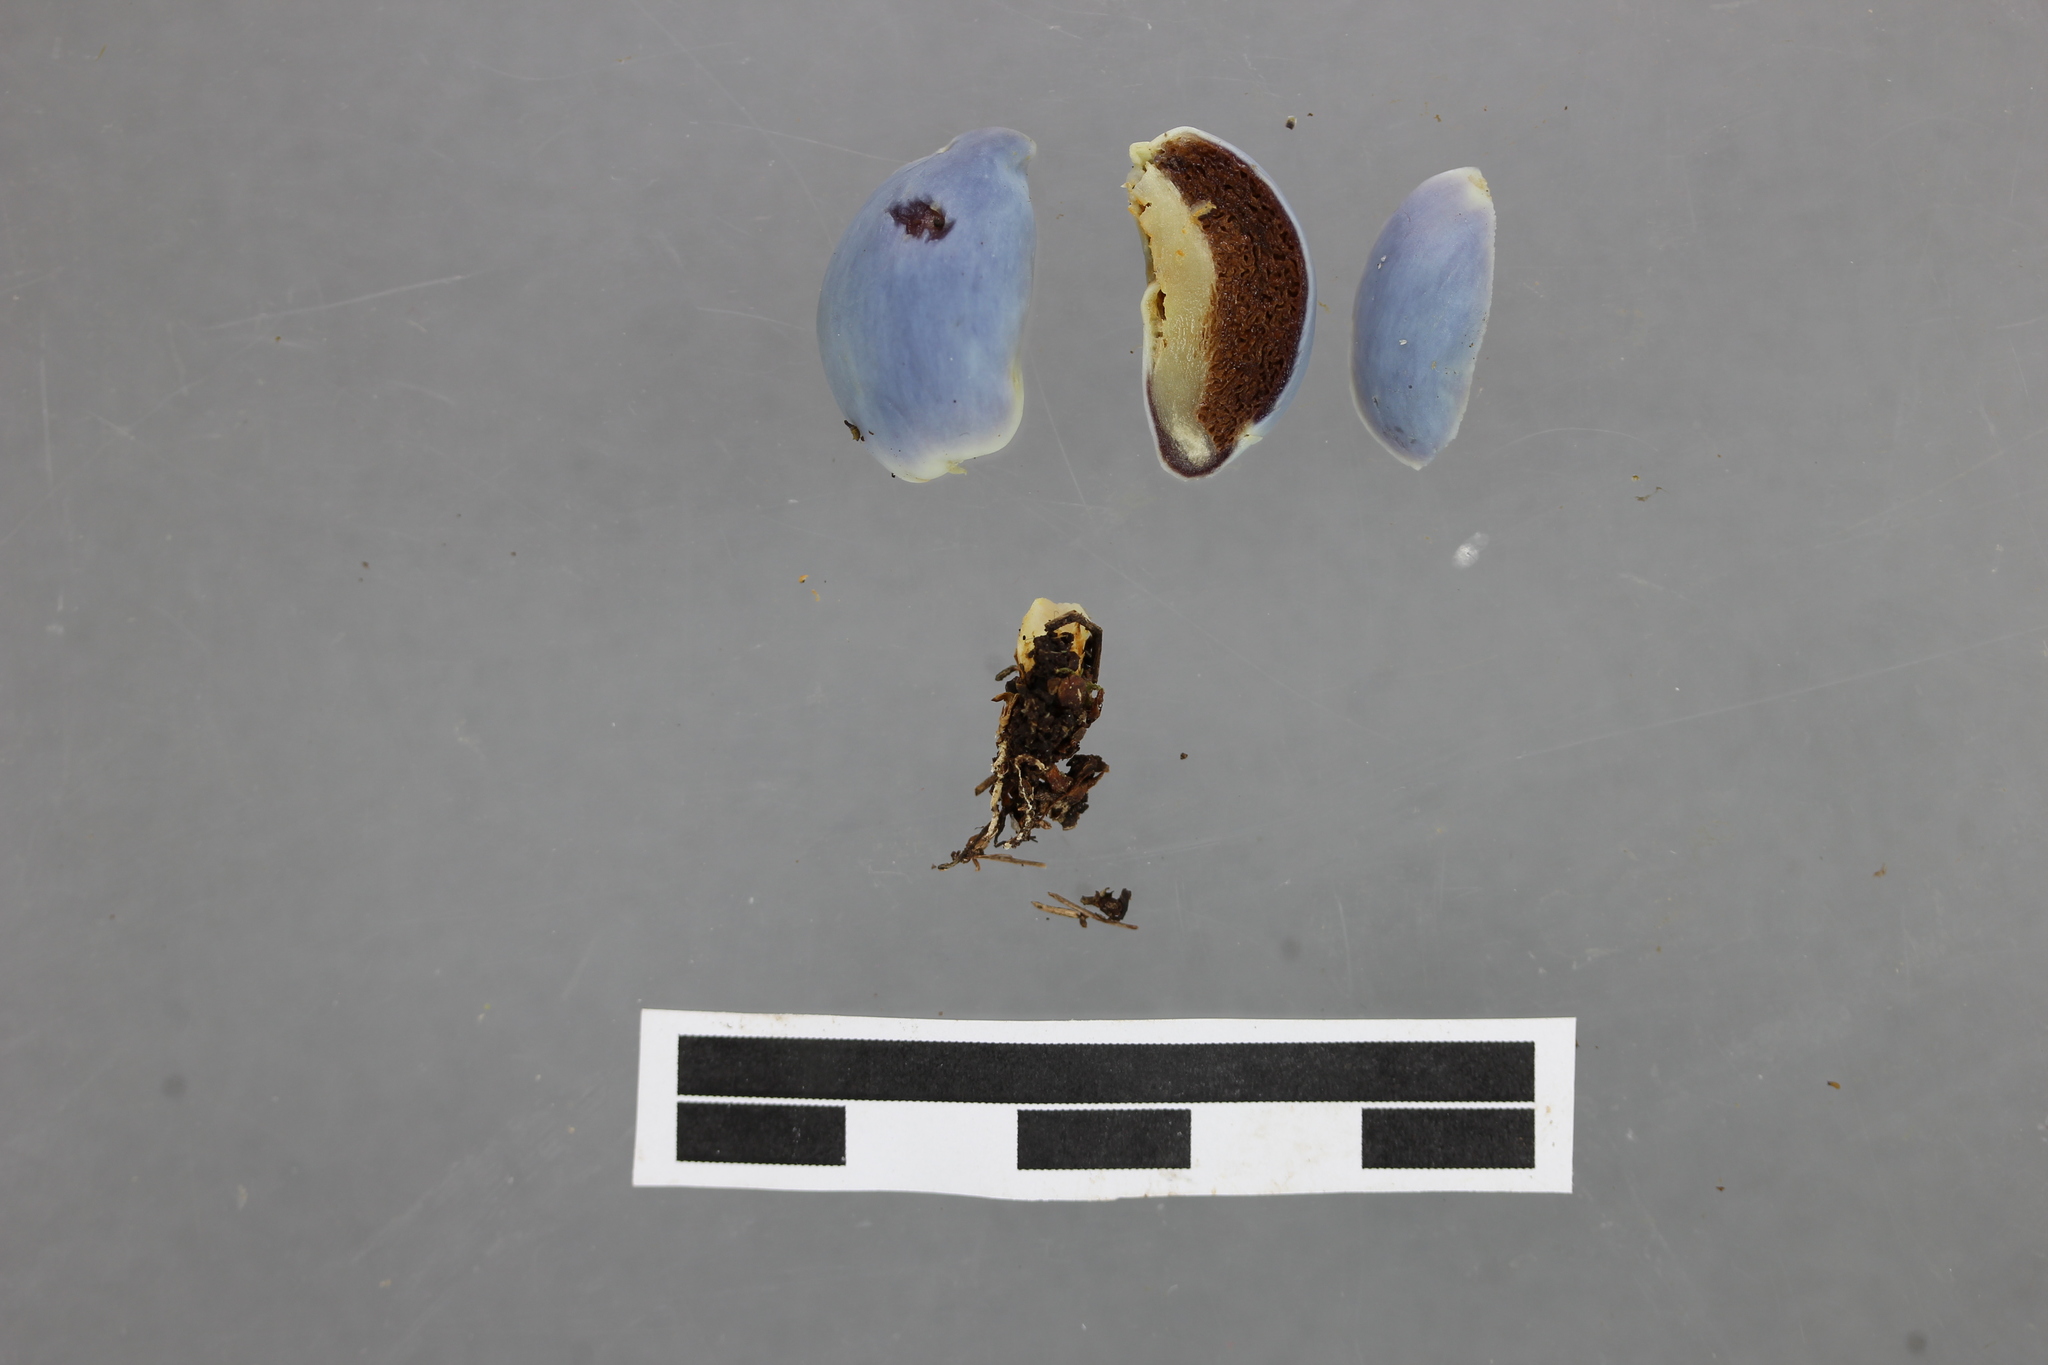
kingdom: Fungi
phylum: Basidiomycota
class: Agaricomycetes
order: Agaricales
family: Agaricaceae
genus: Clavogaster
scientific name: Clavogaster virescens
